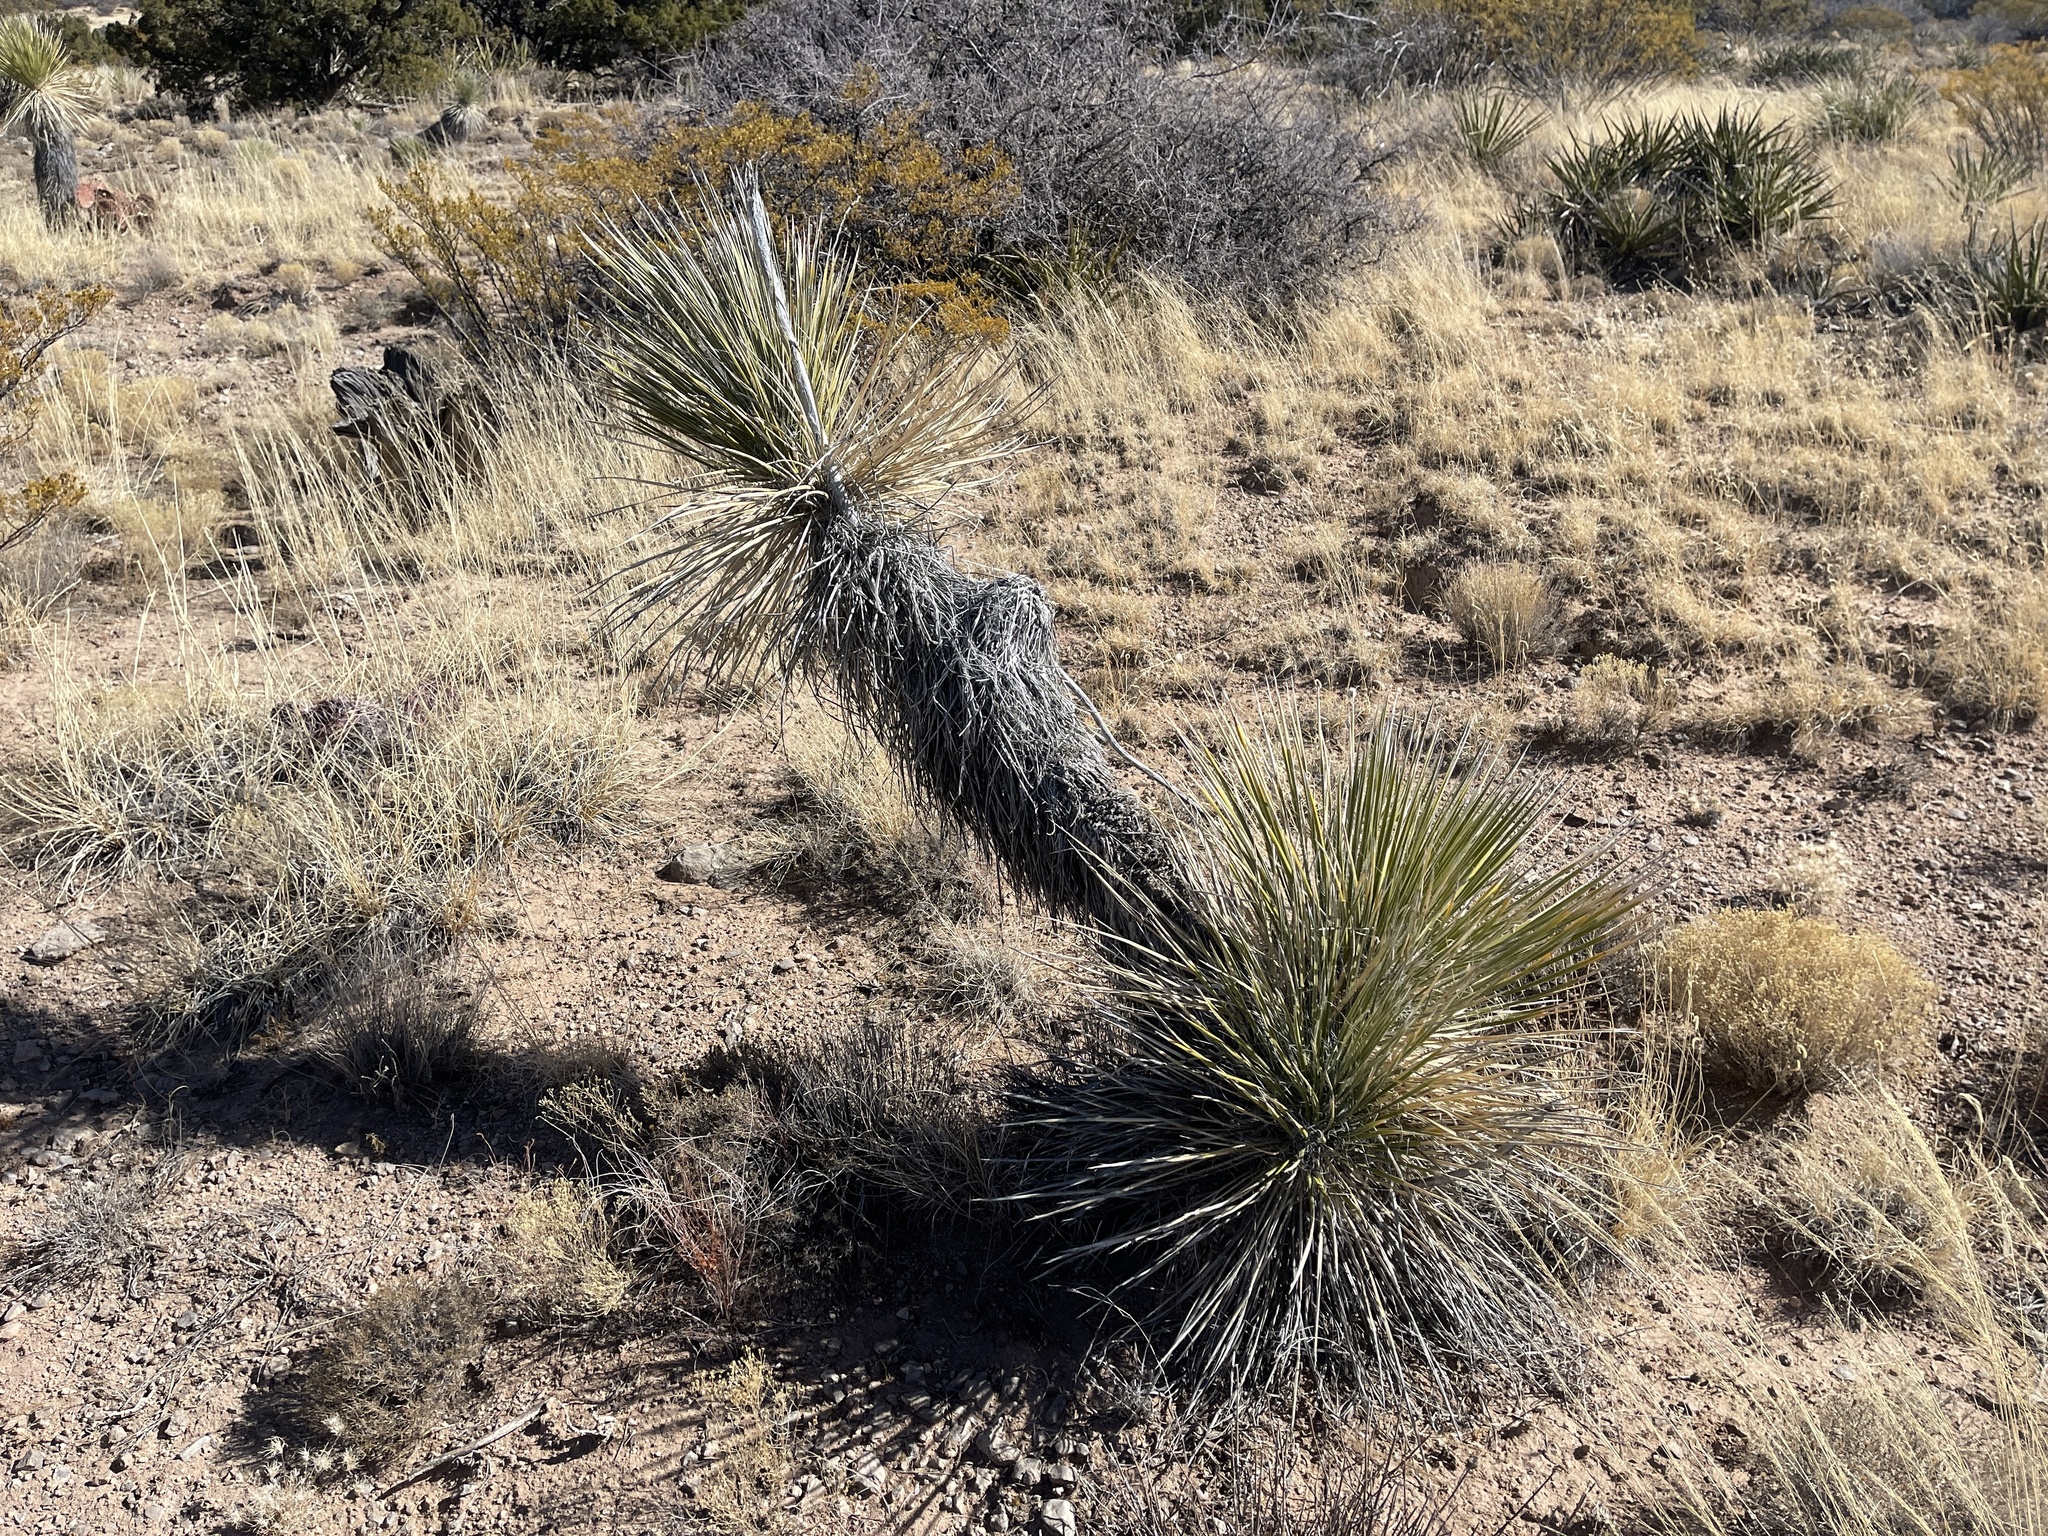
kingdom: Plantae
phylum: Tracheophyta
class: Liliopsida
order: Asparagales
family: Asparagaceae
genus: Yucca
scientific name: Yucca elata
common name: Palmella
